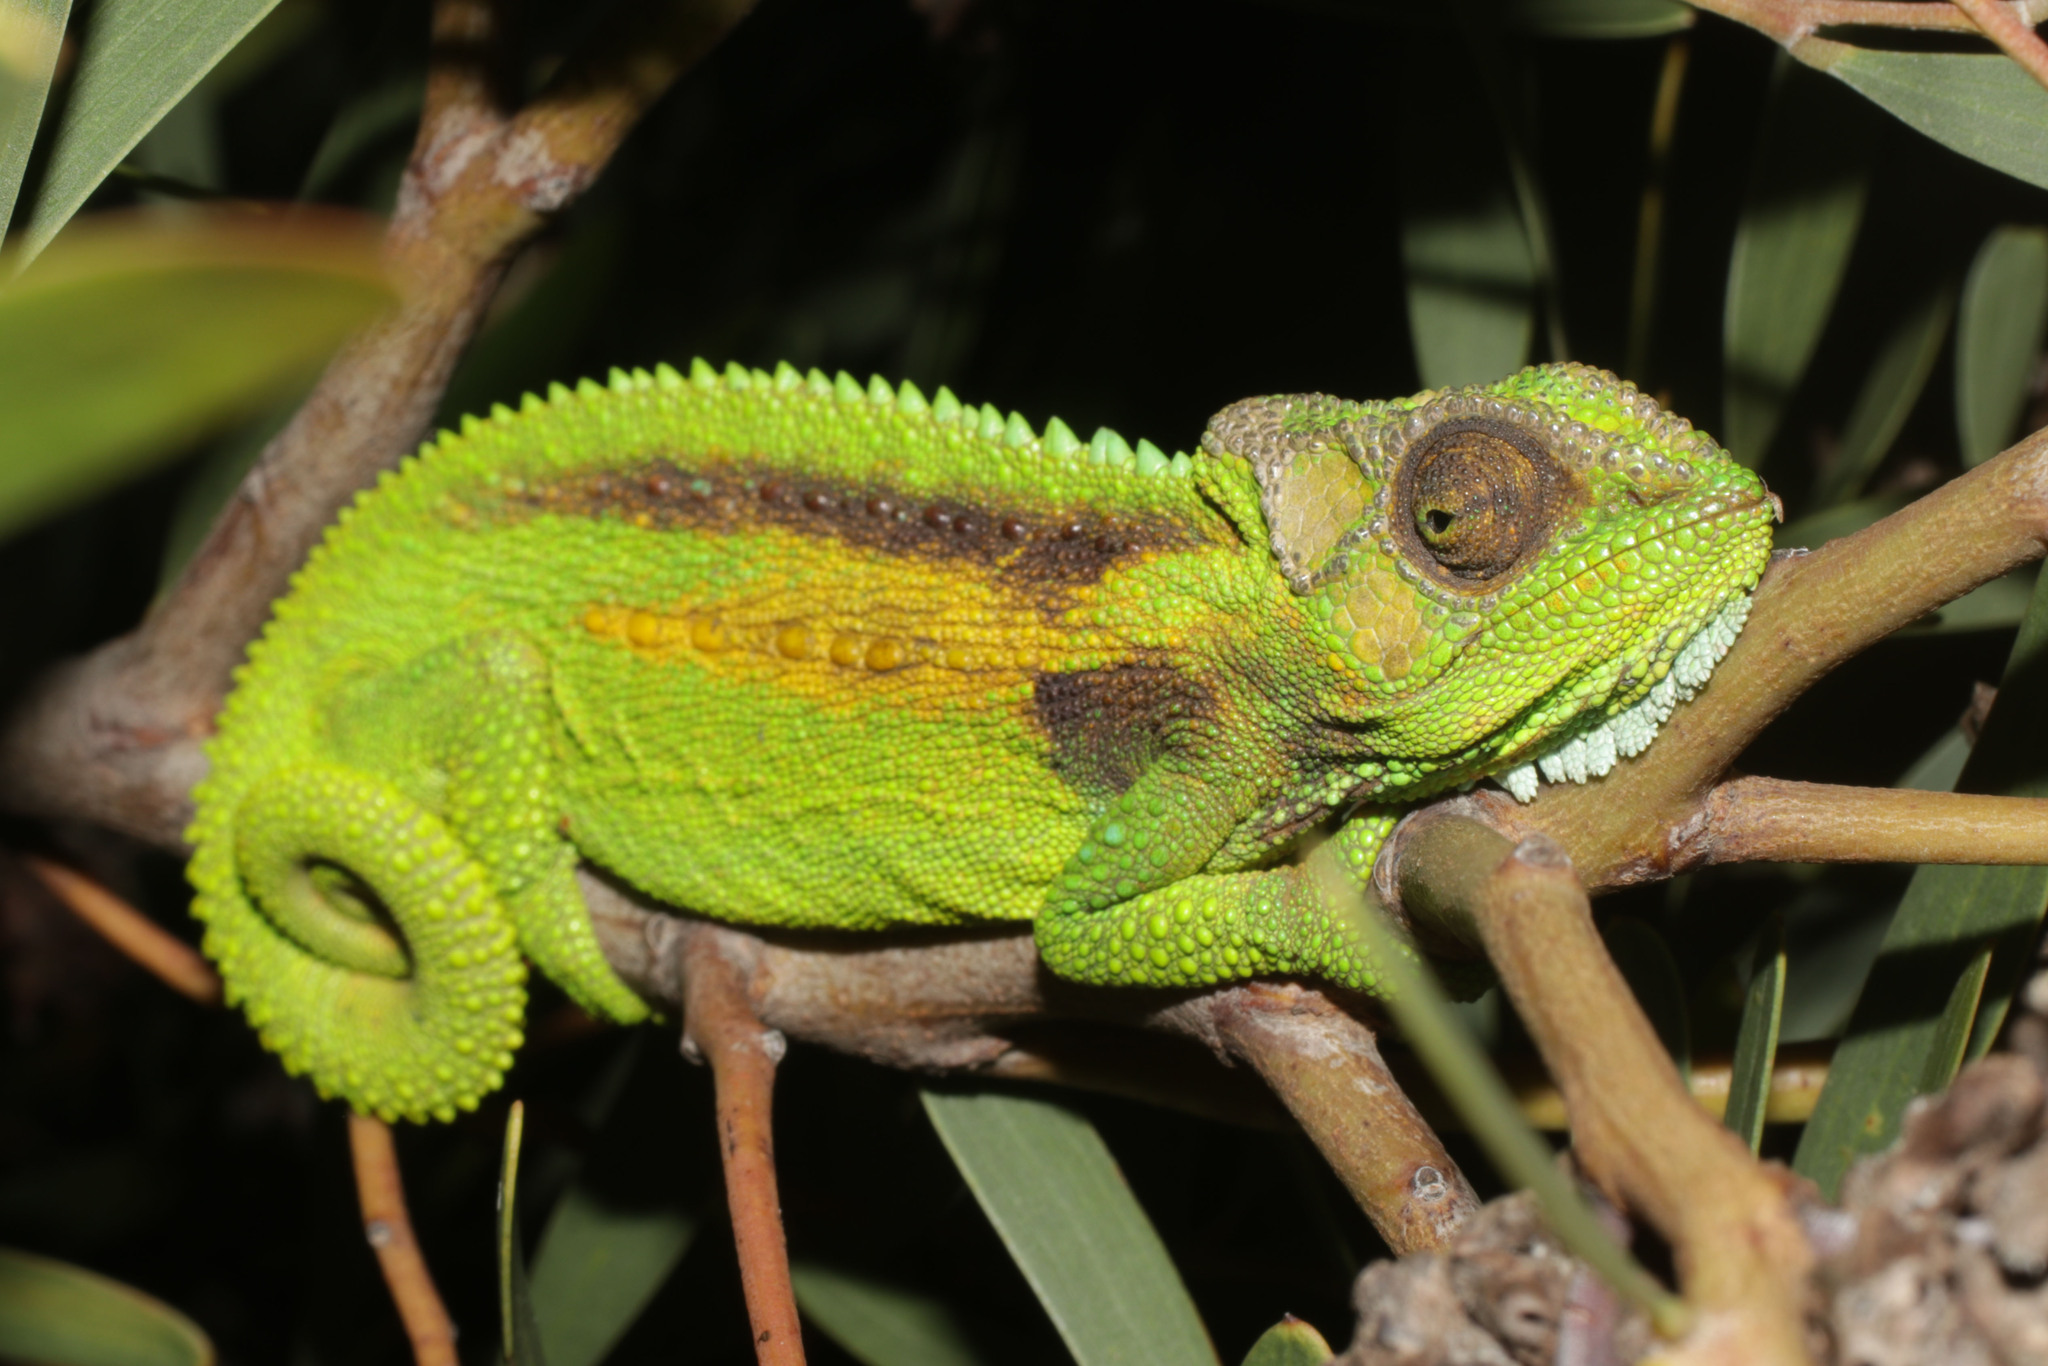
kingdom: Animalia
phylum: Chordata
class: Squamata
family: Chamaeleonidae
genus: Bradypodion
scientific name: Bradypodion pumilum
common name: Cape dwarf chameleon
